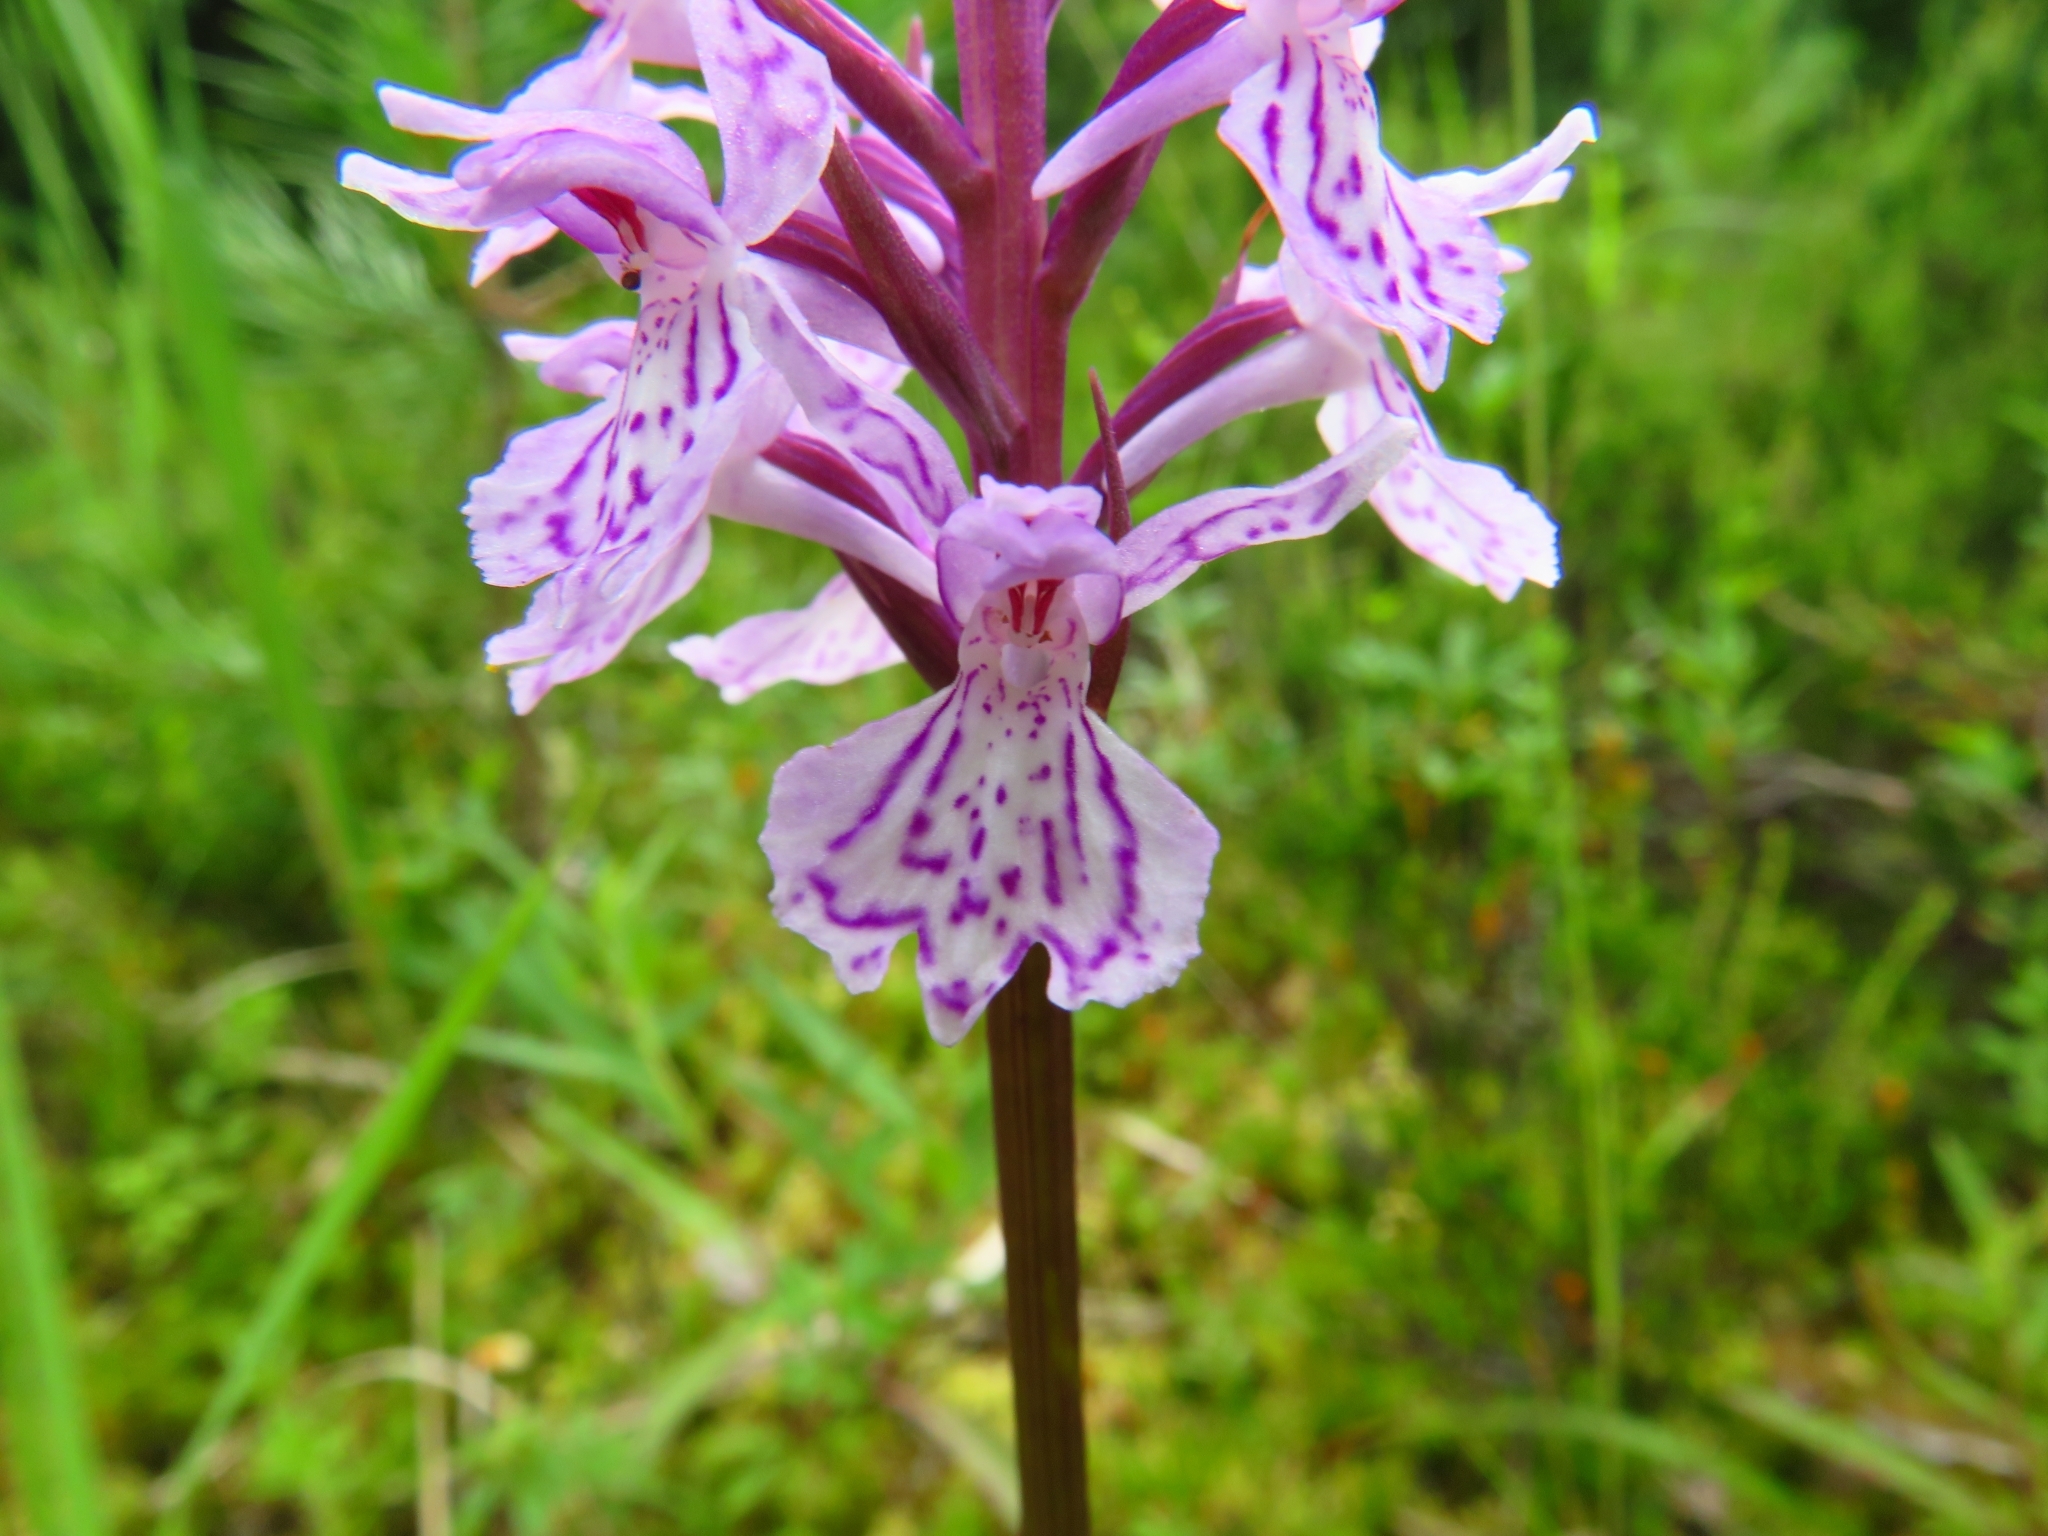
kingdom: Plantae
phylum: Tracheophyta
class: Liliopsida
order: Asparagales
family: Orchidaceae
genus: Dactylorhiza
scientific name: Dactylorhiza maculata
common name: Heath spotted-orchid
